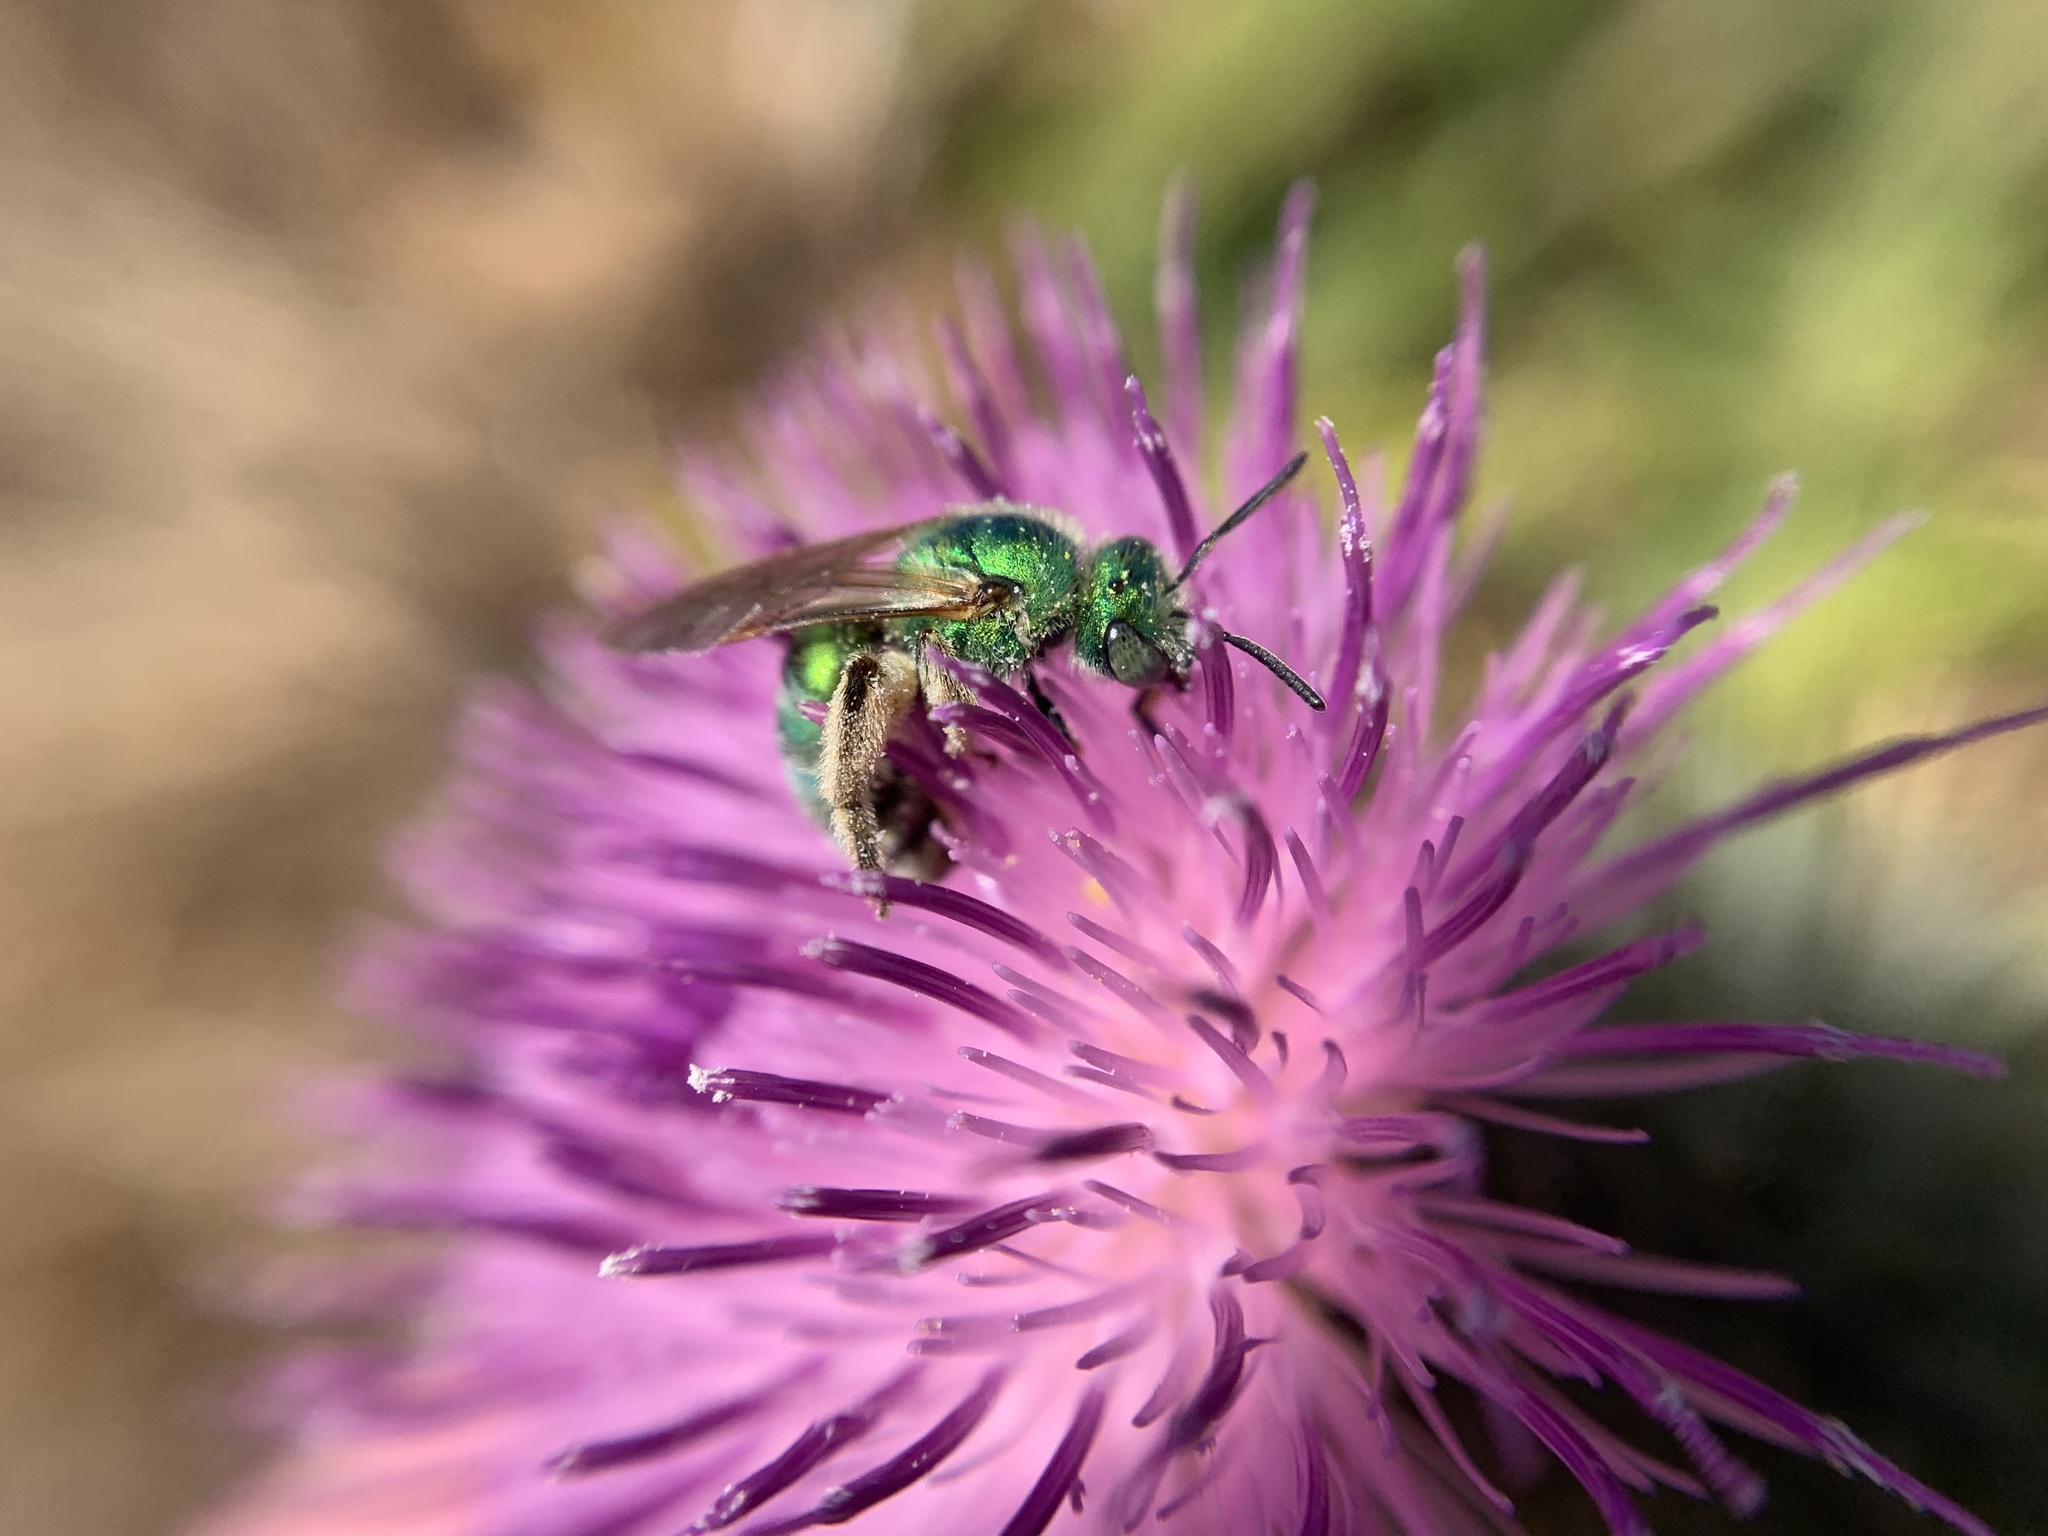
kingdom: Animalia
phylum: Arthropoda
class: Insecta
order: Hymenoptera
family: Halictidae
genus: Agapostemon
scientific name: Agapostemon texanus
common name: Texas striped sweat bee
